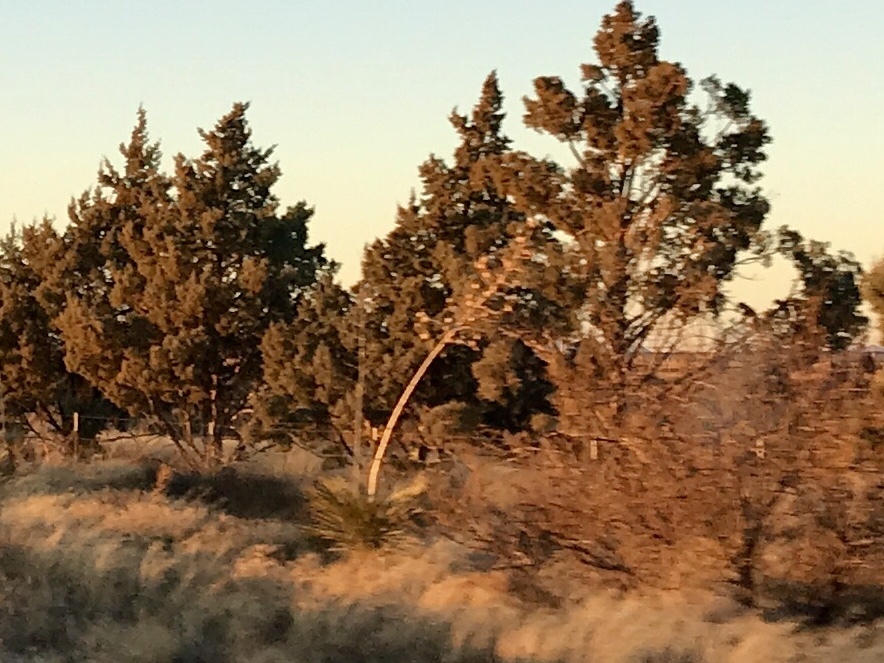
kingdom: Plantae
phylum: Tracheophyta
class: Liliopsida
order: Asparagales
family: Asparagaceae
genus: Yucca
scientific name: Yucca elata
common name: Palmella
